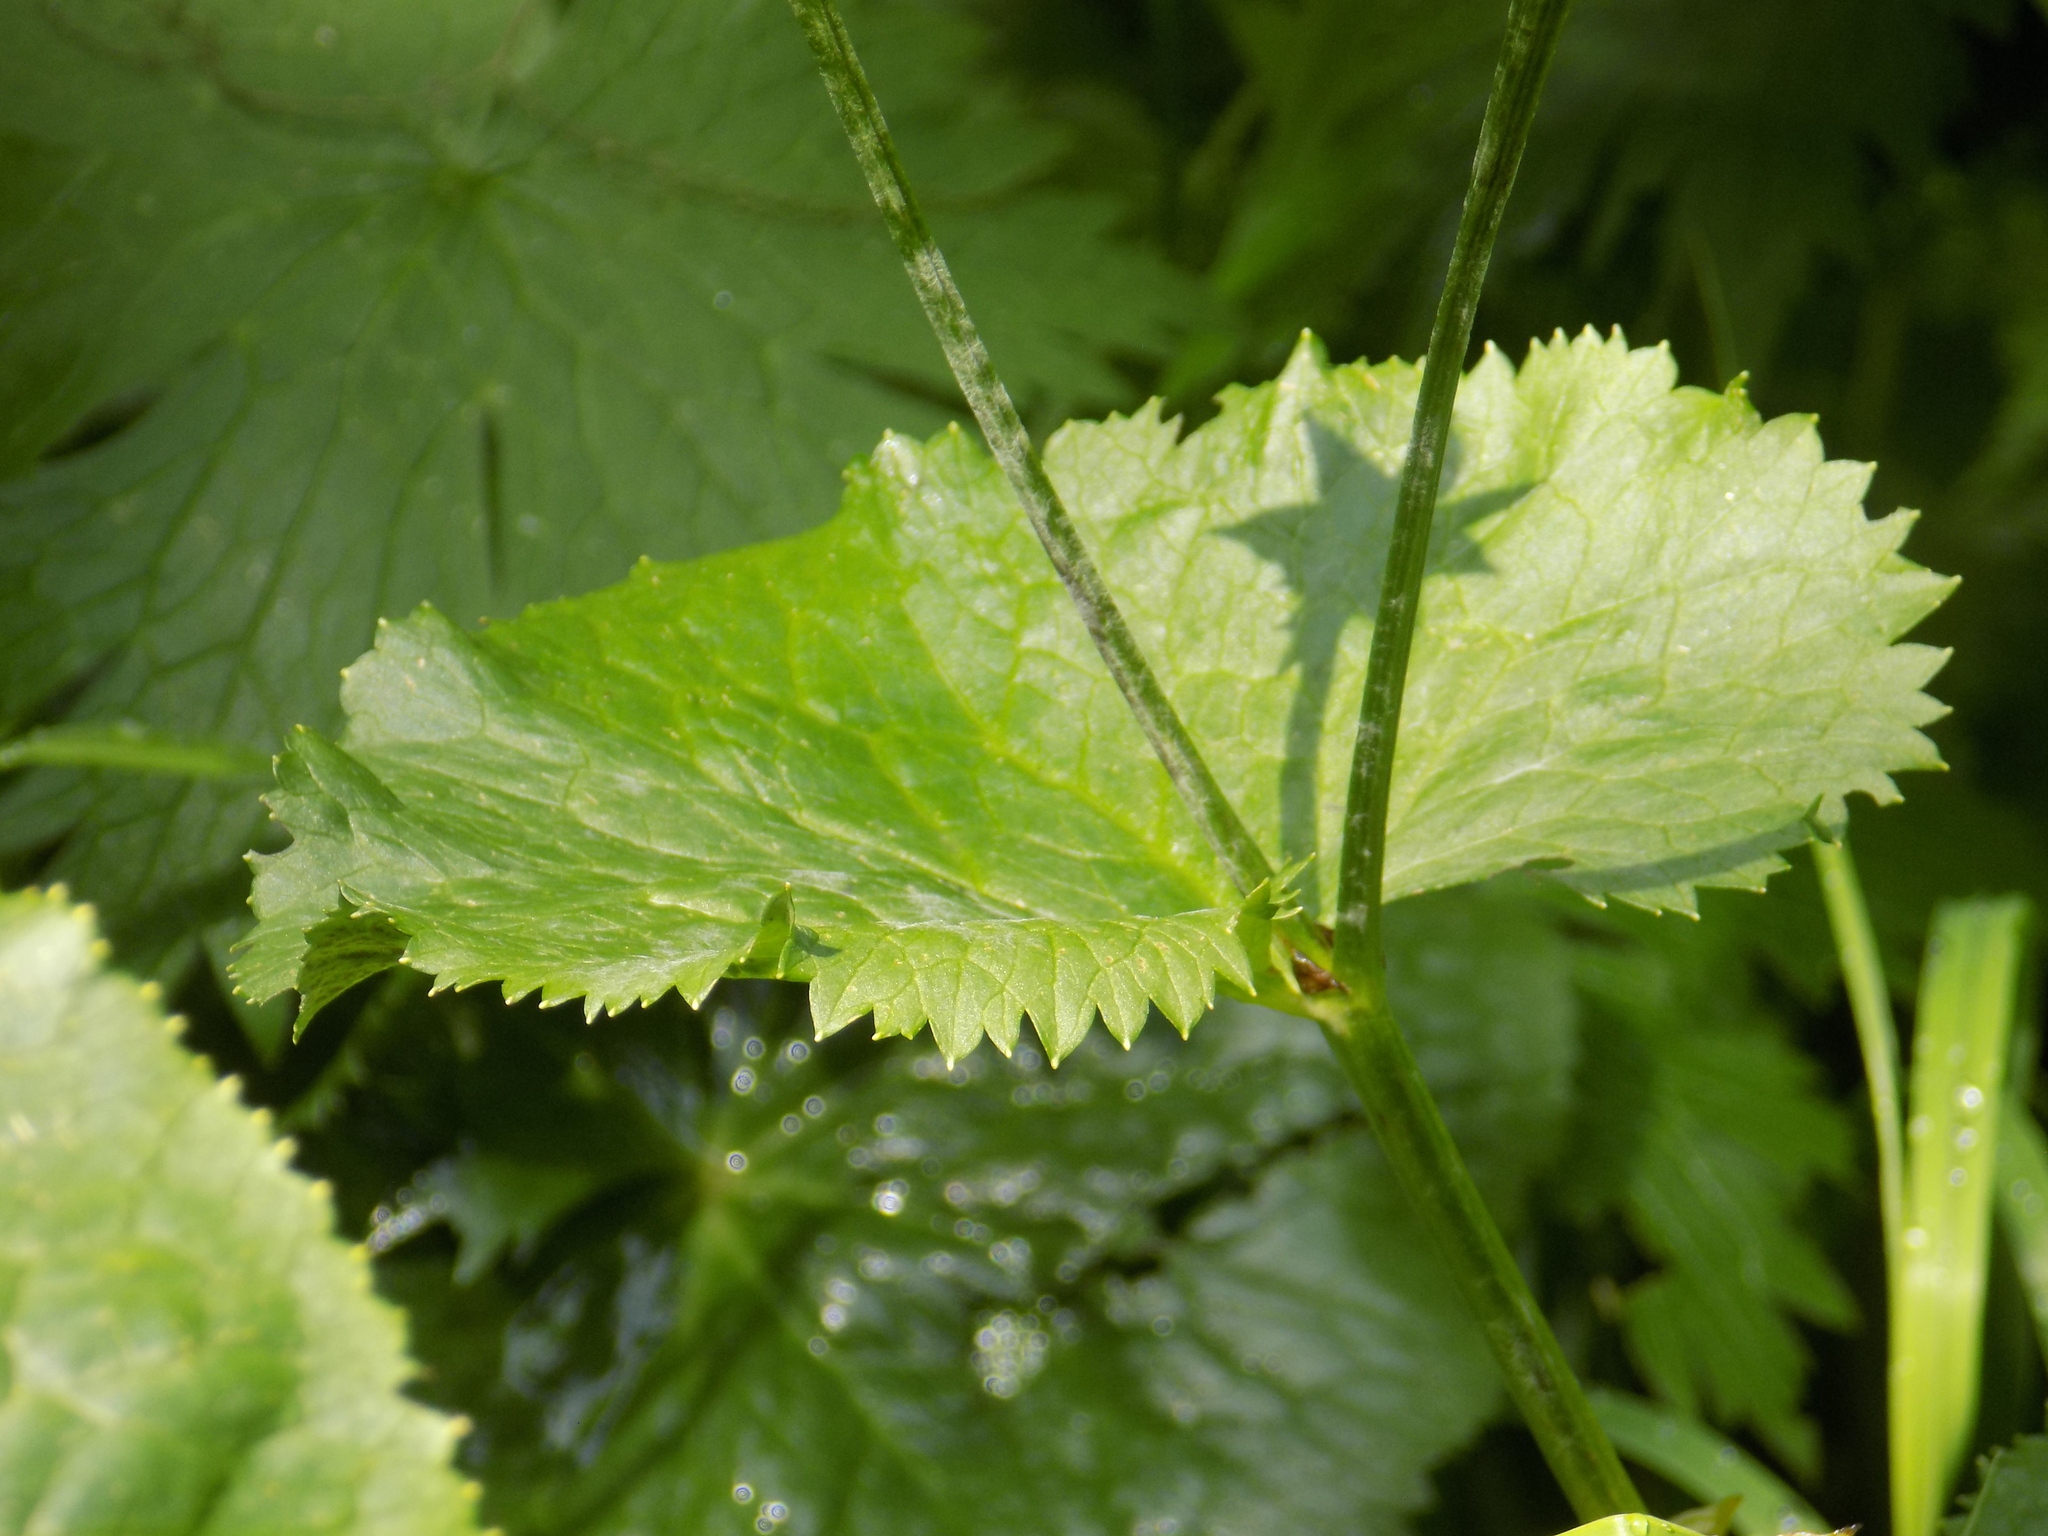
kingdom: Plantae
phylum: Tracheophyta
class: Magnoliopsida
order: Ranunculales
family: Ranunculaceae
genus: Caltha
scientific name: Caltha palustris
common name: Marsh marigold
